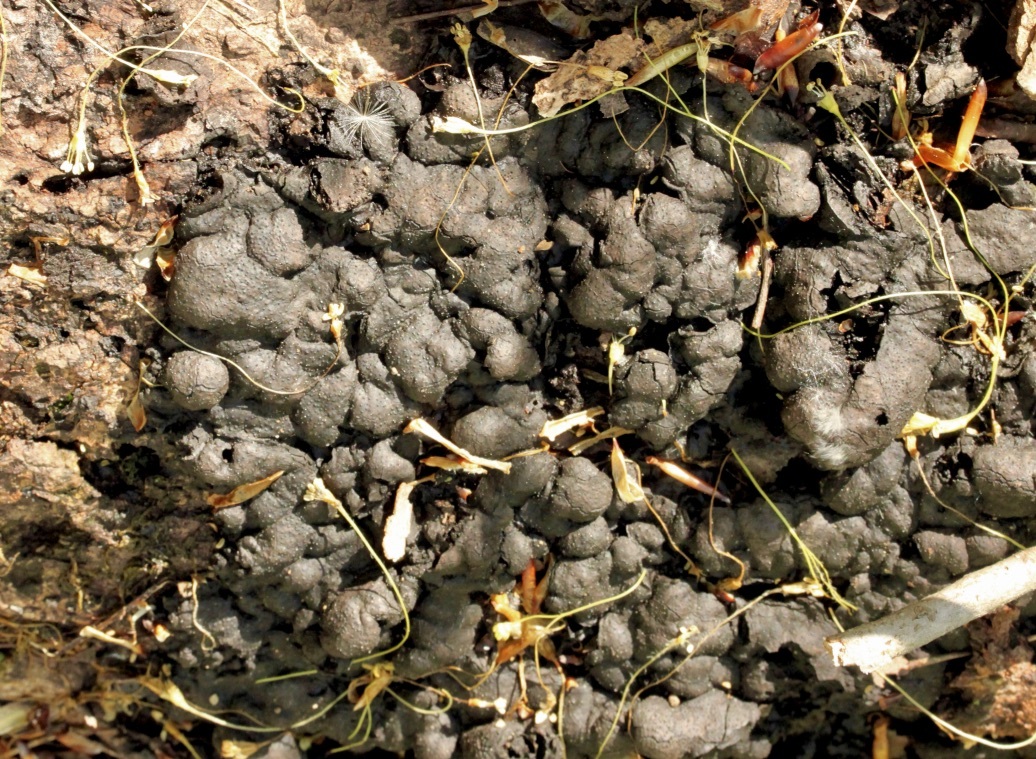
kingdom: Fungi
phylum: Ascomycota
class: Sordariomycetes
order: Xylariales
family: Xylariaceae
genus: Kretzschmaria
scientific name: Kretzschmaria deusta
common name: Brittle cinder
